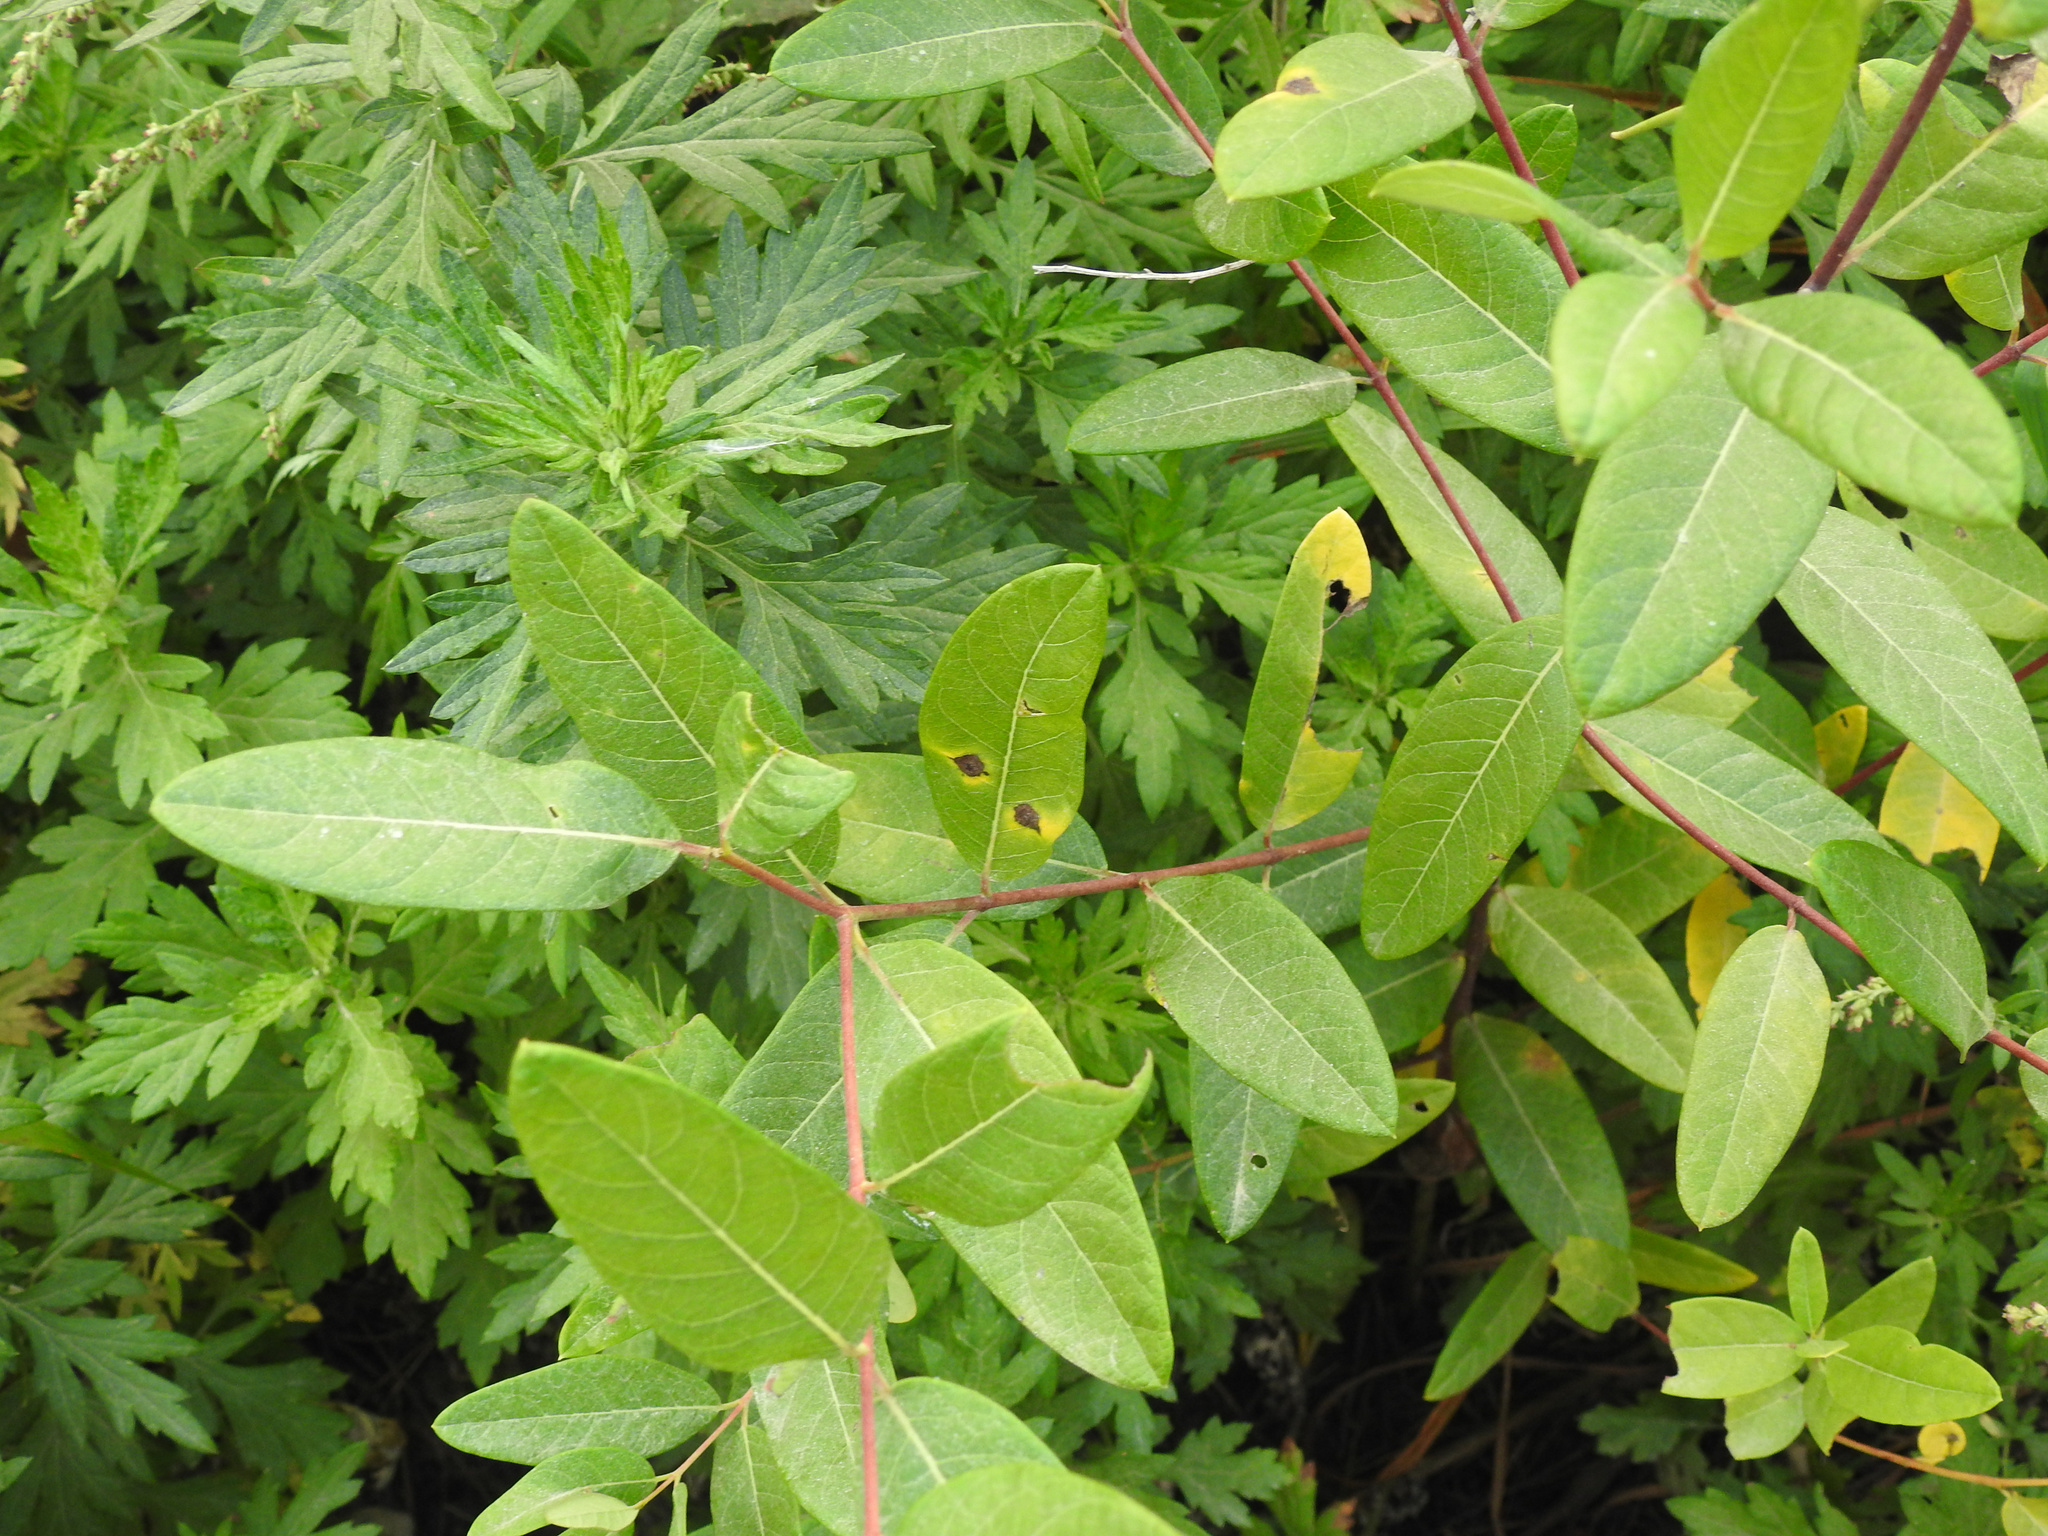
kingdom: Plantae
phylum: Tracheophyta
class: Magnoliopsida
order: Gentianales
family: Apocynaceae
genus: Apocynum
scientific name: Apocynum cannabinum
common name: Hemp dogbane
